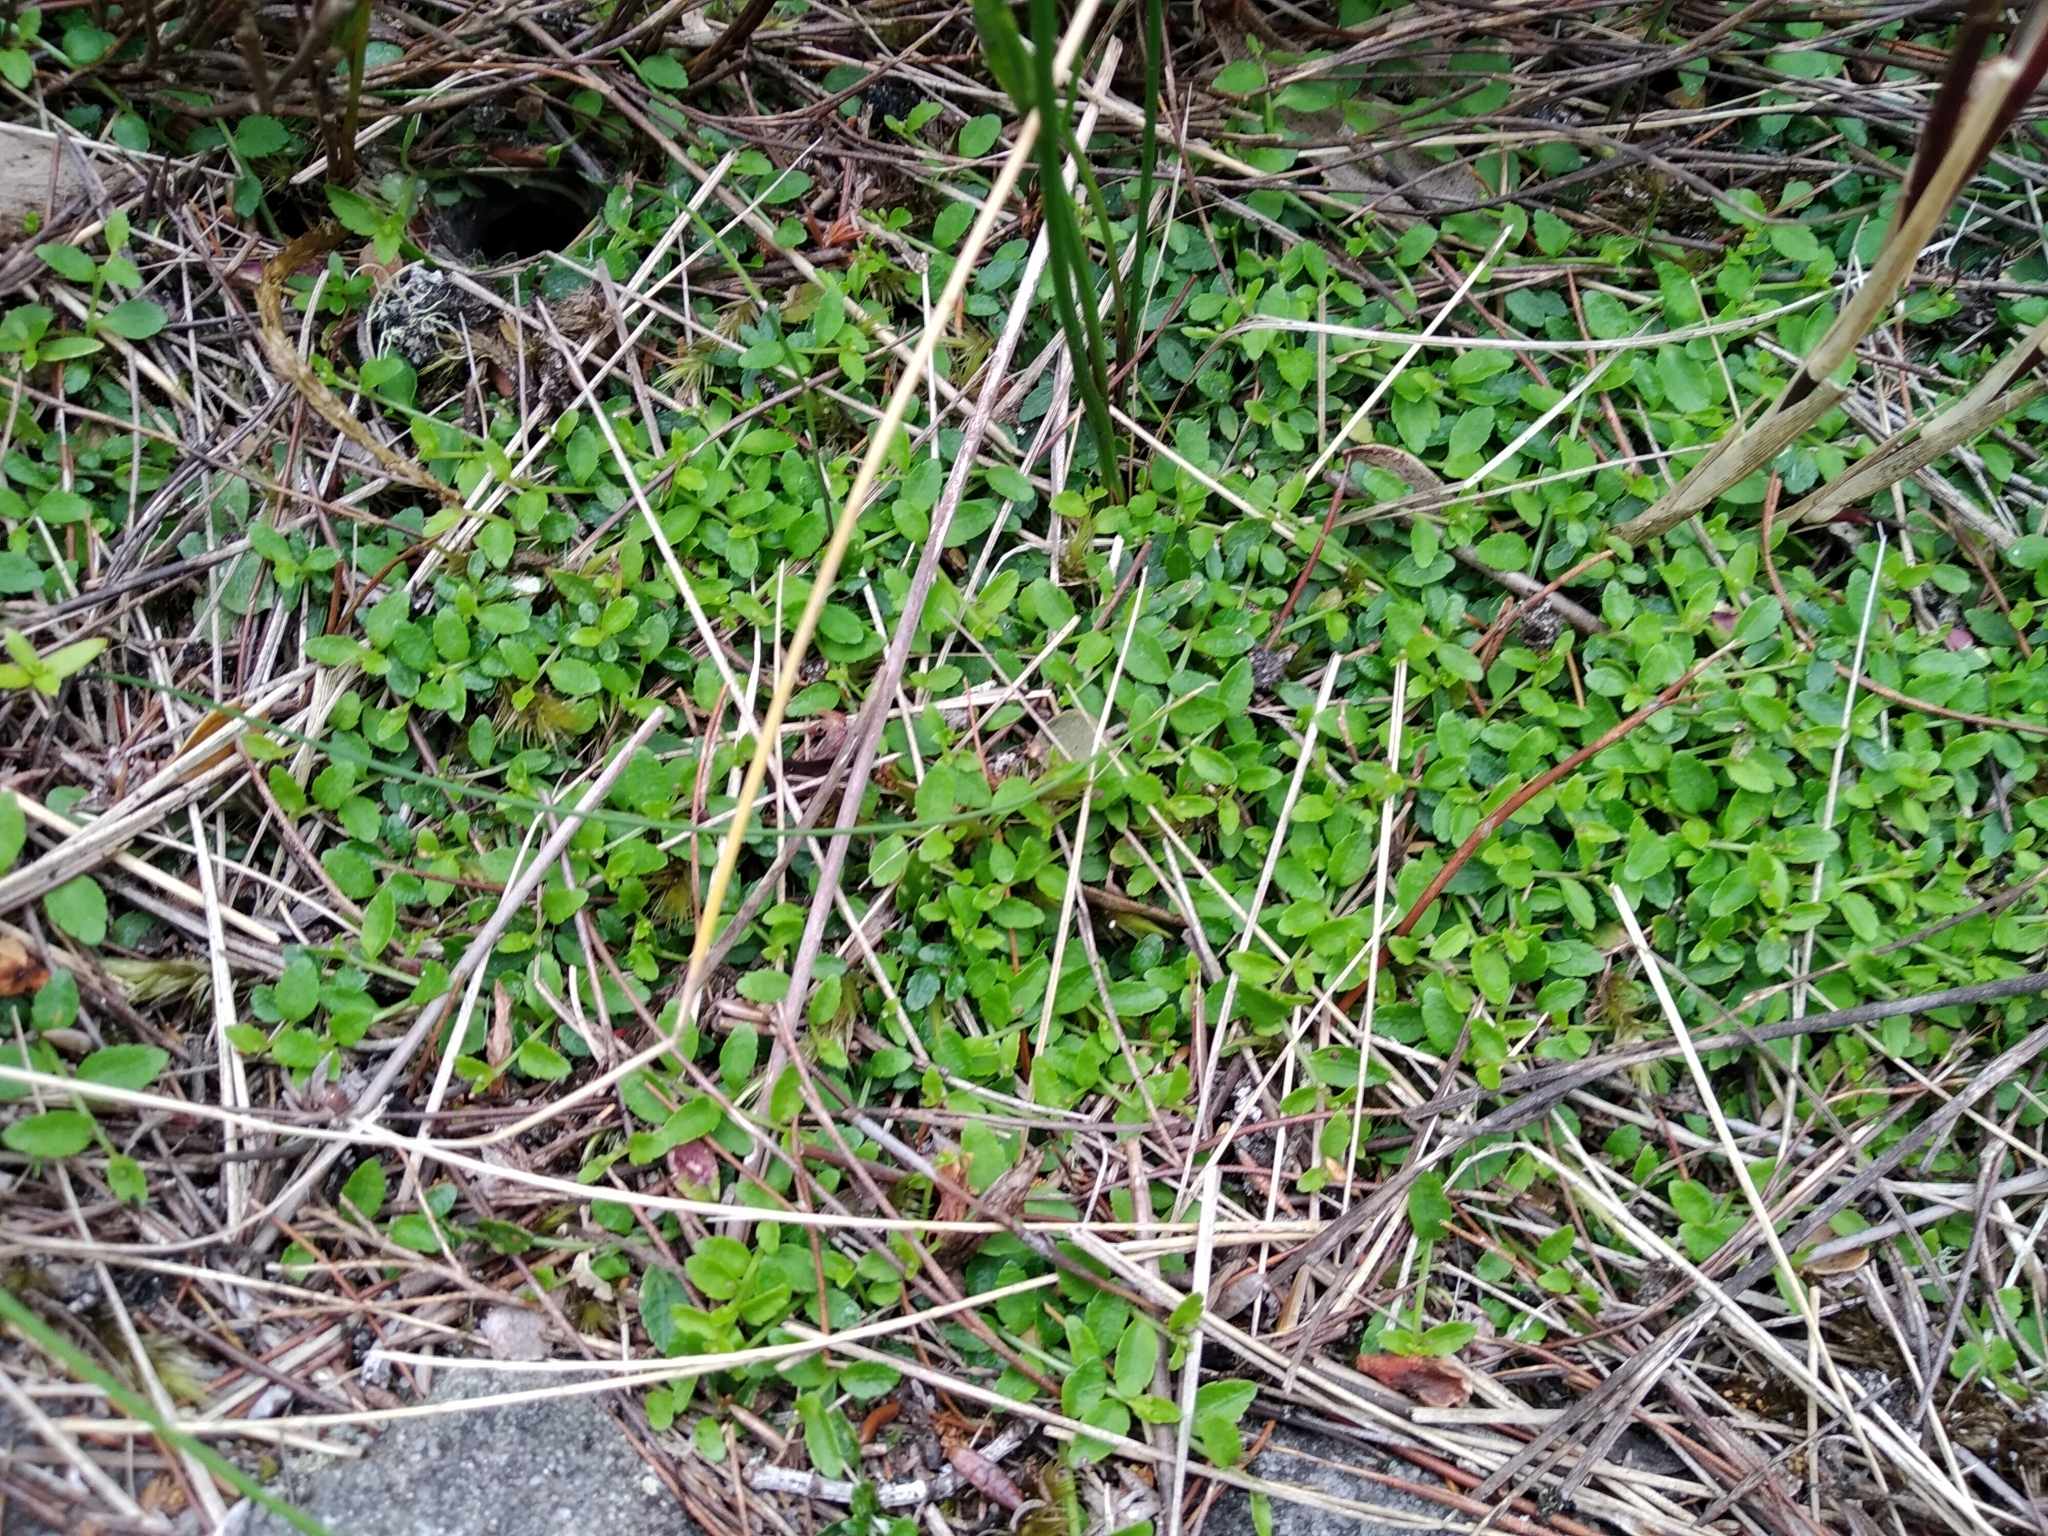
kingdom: Plantae
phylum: Tracheophyta
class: Magnoliopsida
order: Asterales
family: Campanulaceae
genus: Unigenes
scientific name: Unigenes humifusa
